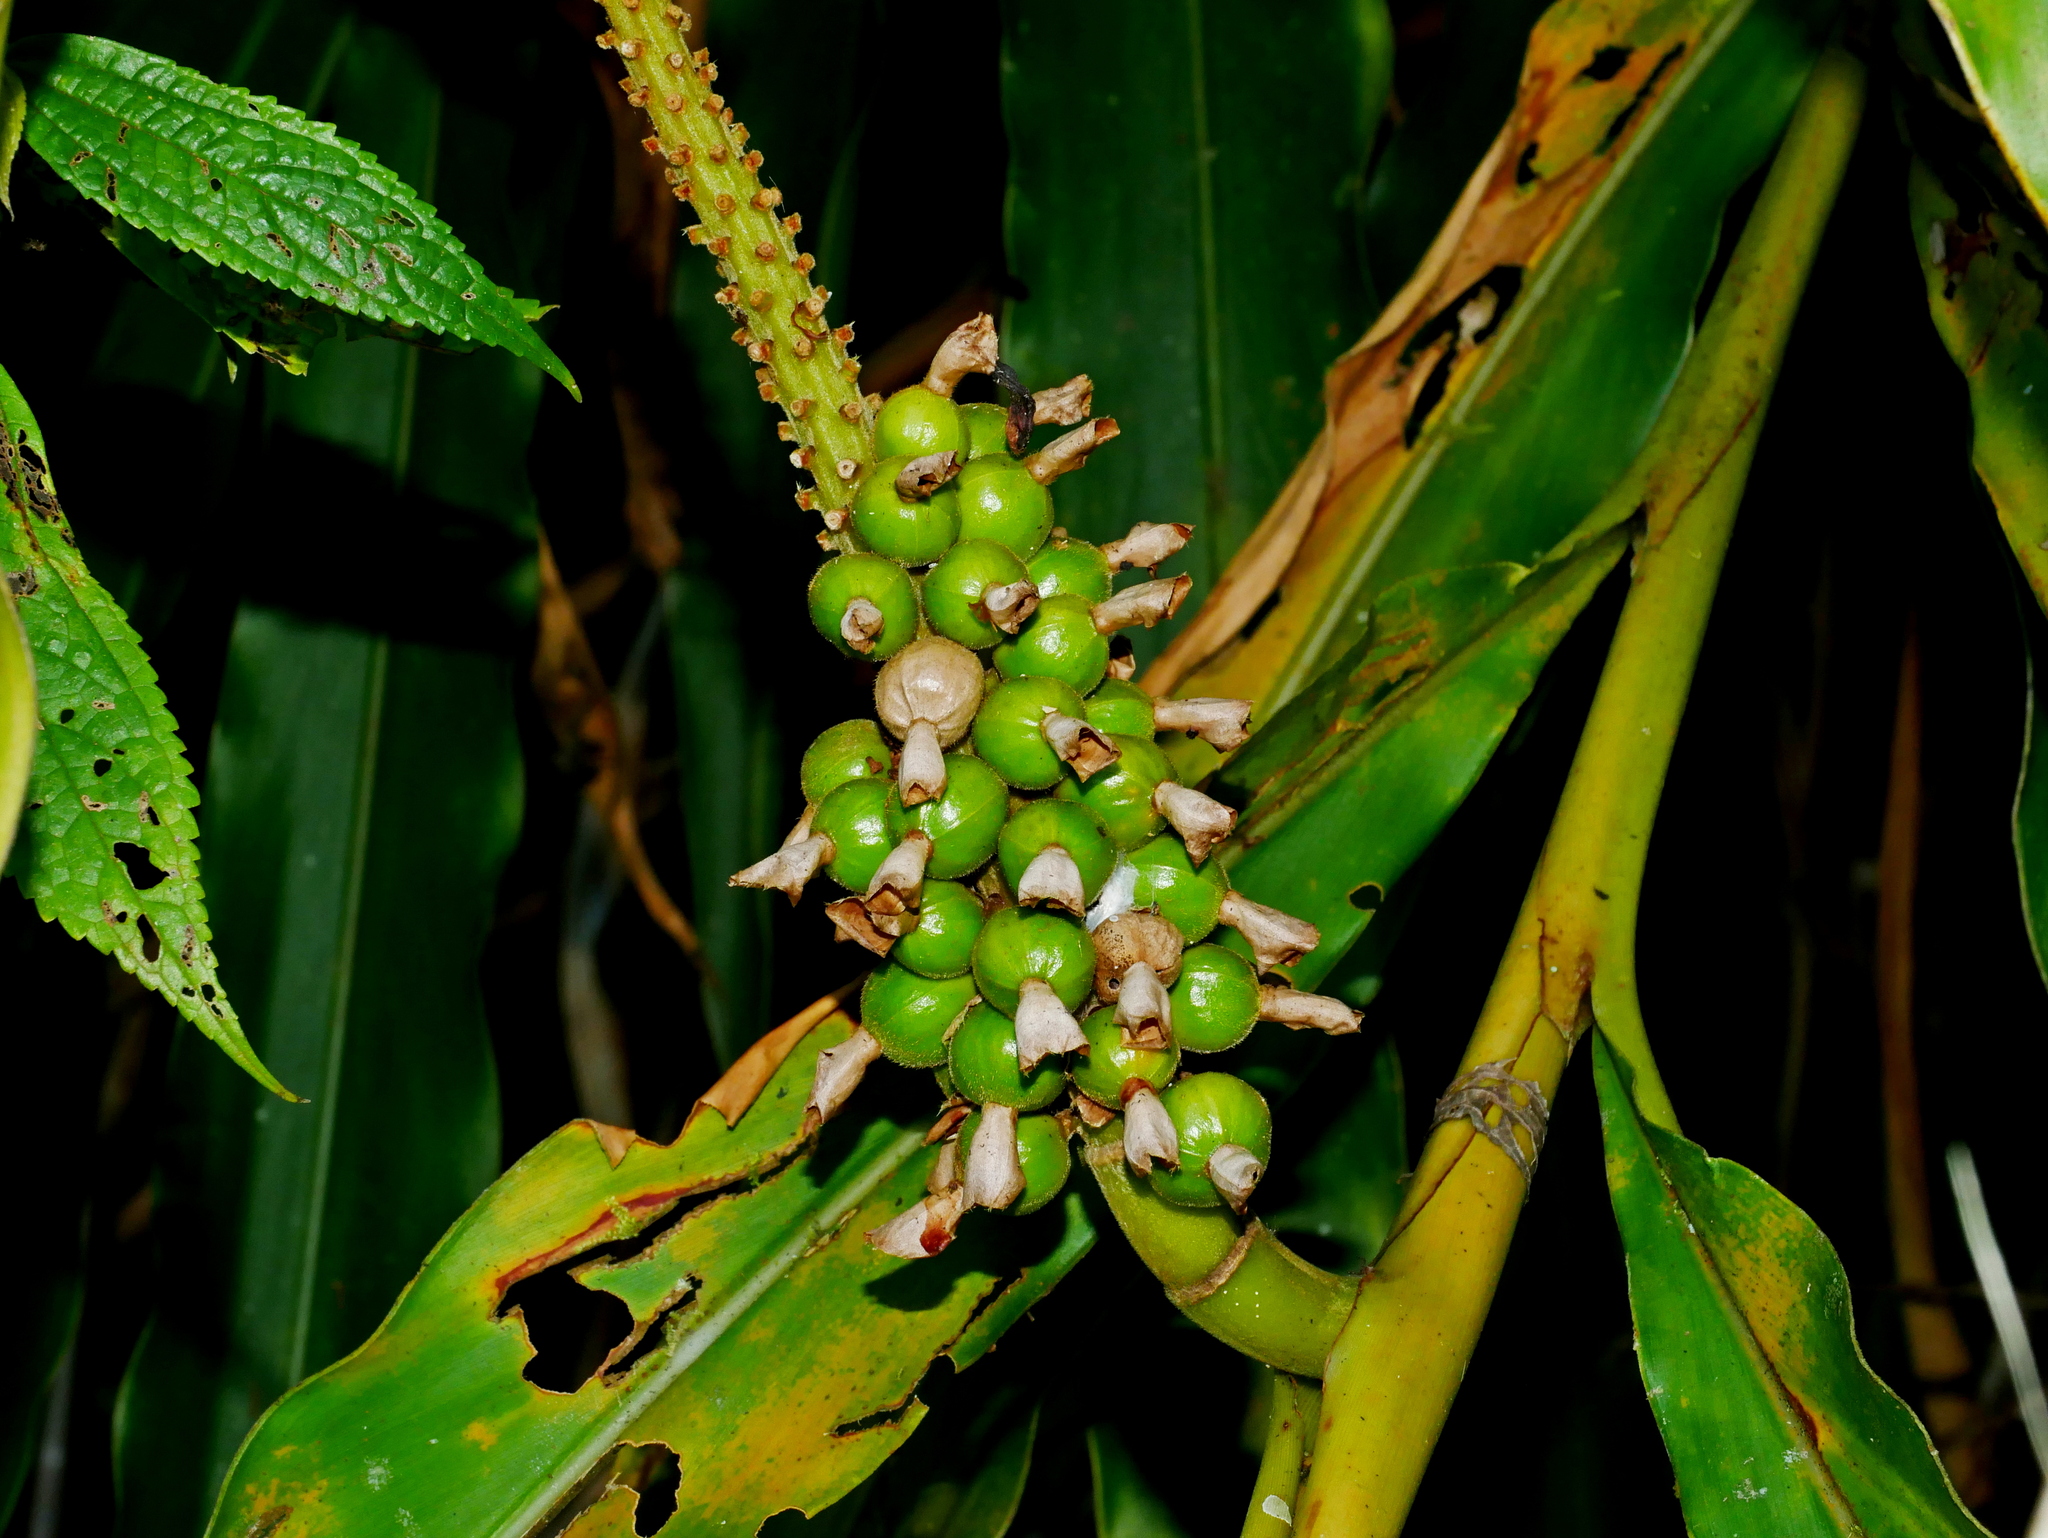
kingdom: Plantae
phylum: Tracheophyta
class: Liliopsida
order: Zingiberales
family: Zingiberaceae
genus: Alpinia
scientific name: Alpinia shimadae
